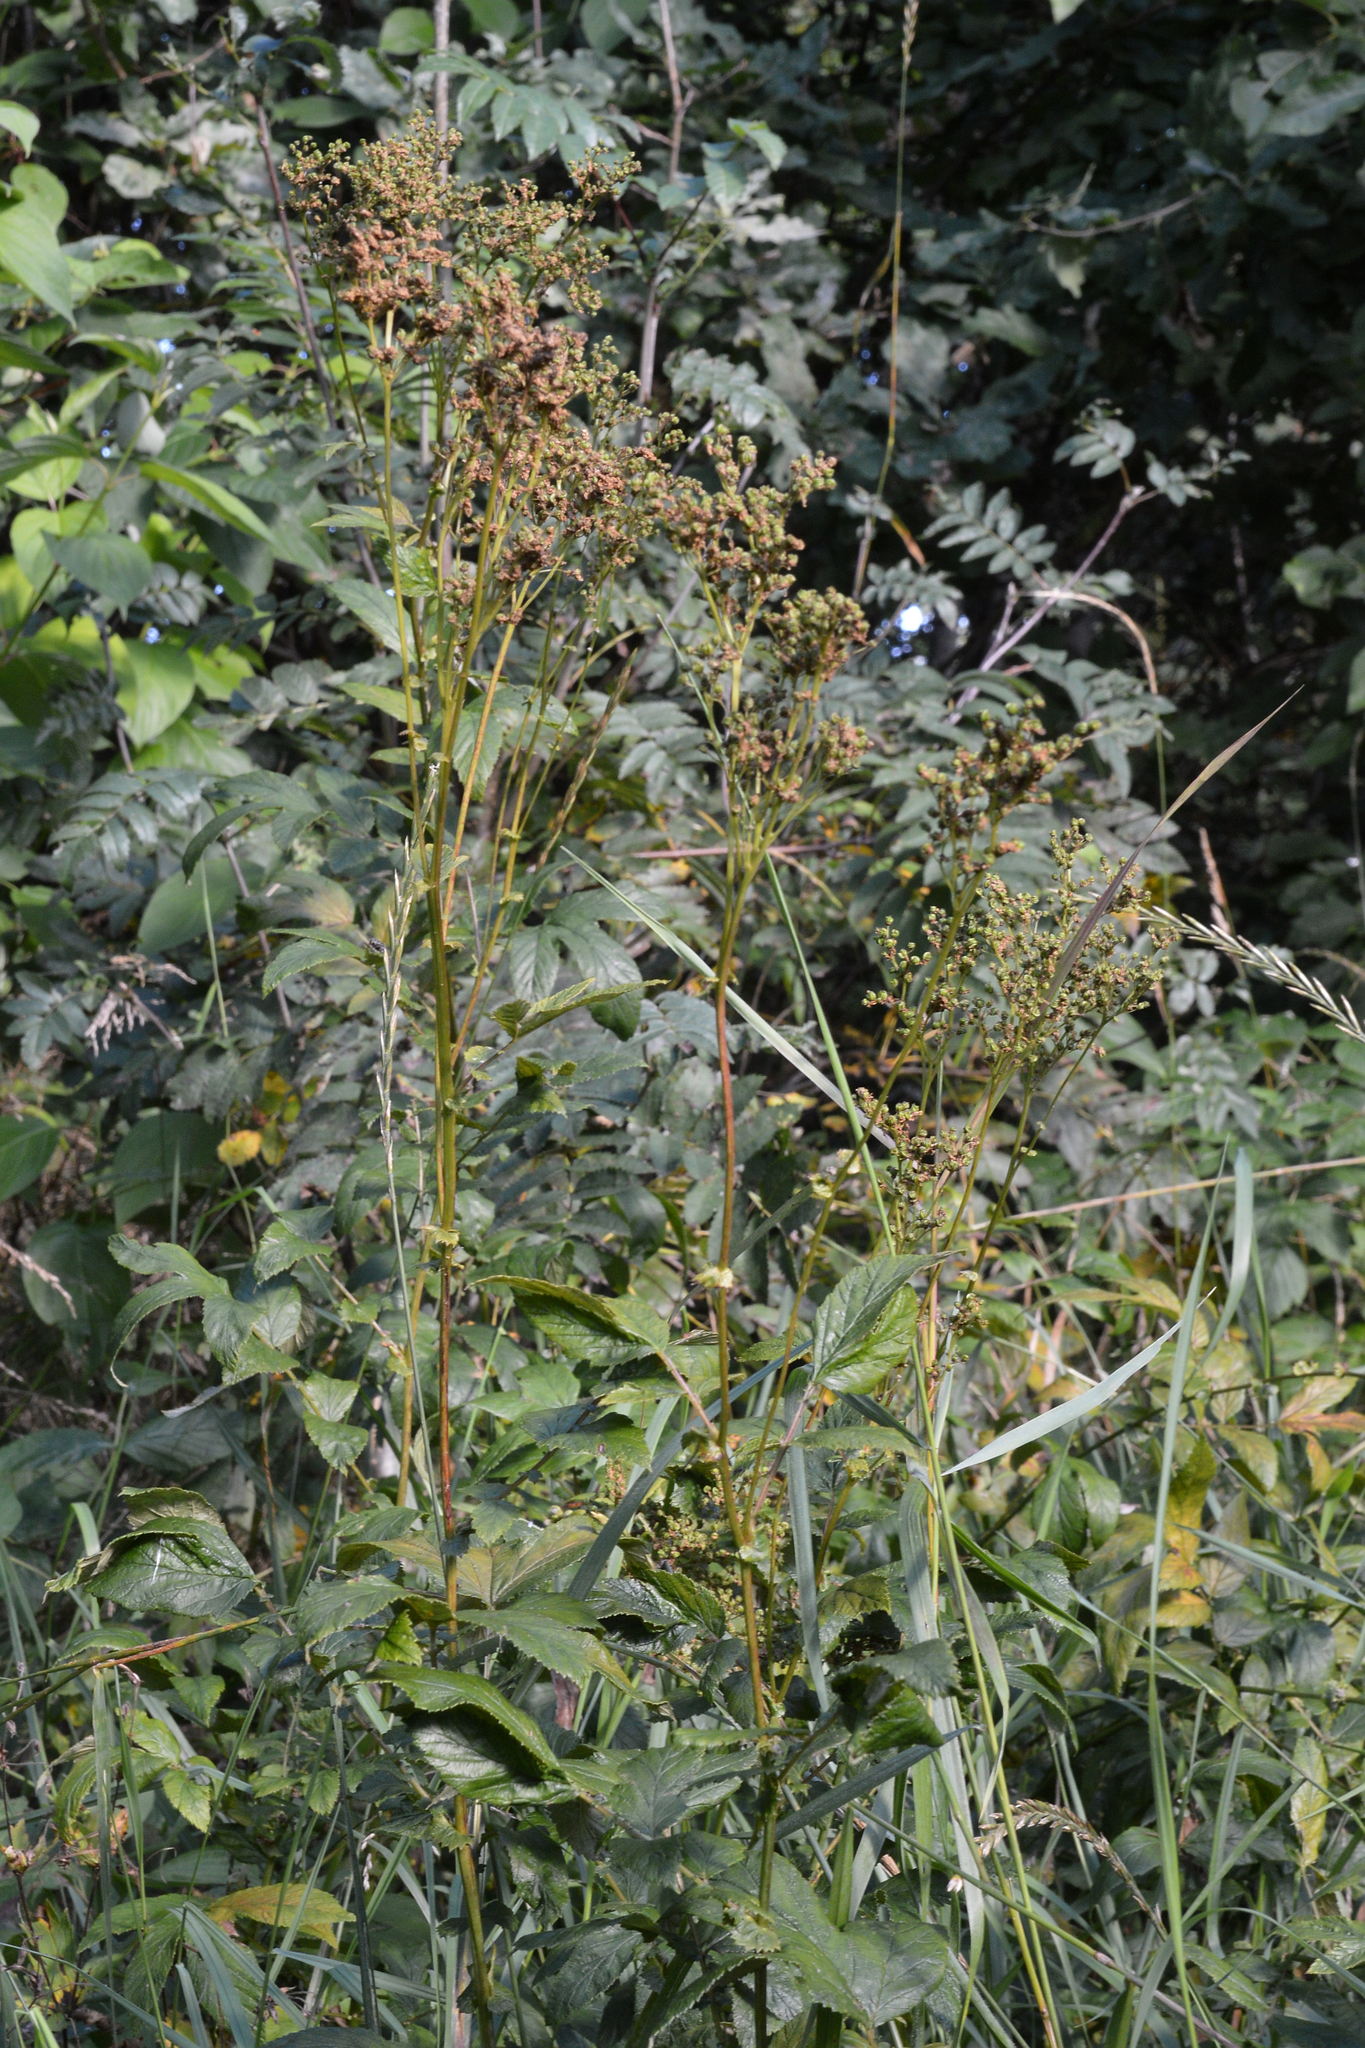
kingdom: Plantae
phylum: Tracheophyta
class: Magnoliopsida
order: Rosales
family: Rosaceae
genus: Filipendula
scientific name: Filipendula ulmaria
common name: Meadowsweet
